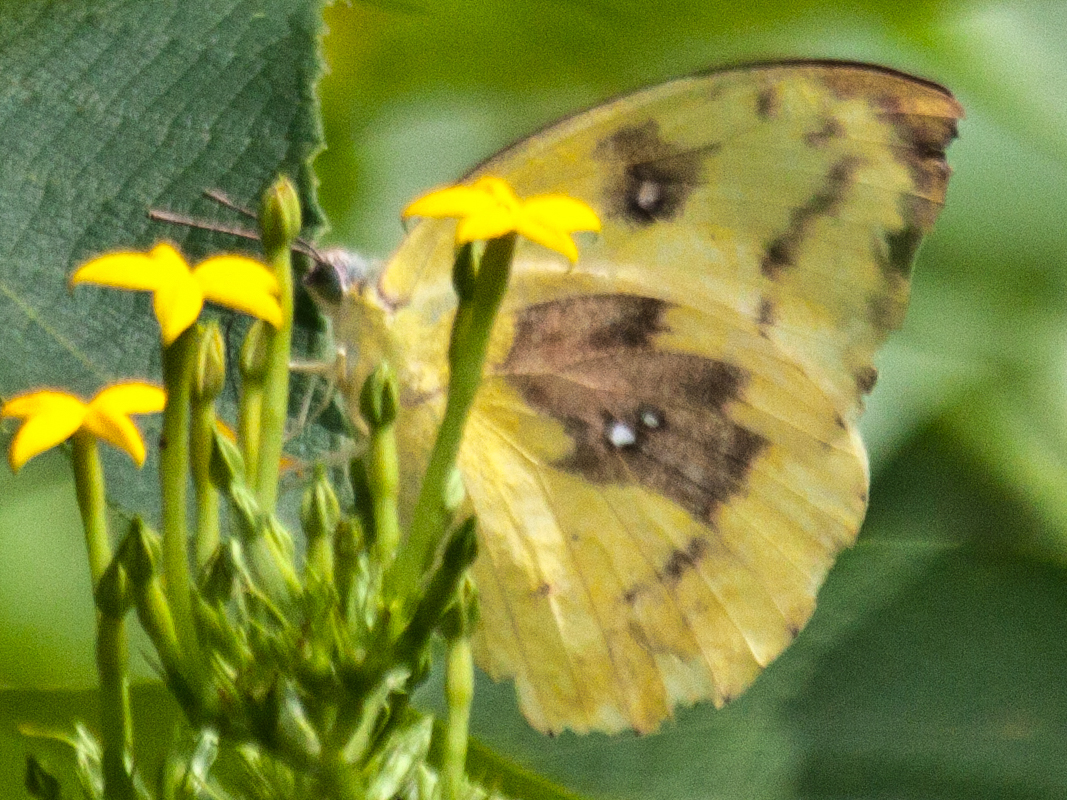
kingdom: Animalia
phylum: Arthropoda
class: Insecta
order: Lepidoptera
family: Pieridae
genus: Catopsilia
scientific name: Catopsilia pomona
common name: Common emigrant
